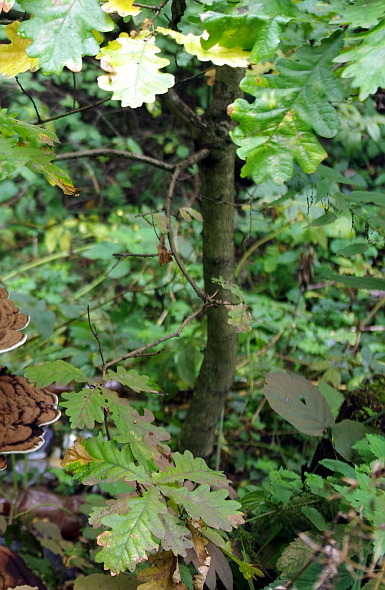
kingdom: Plantae
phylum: Tracheophyta
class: Magnoliopsida
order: Fagales
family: Fagaceae
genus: Quercus
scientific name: Quercus robur
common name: Pedunculate oak
